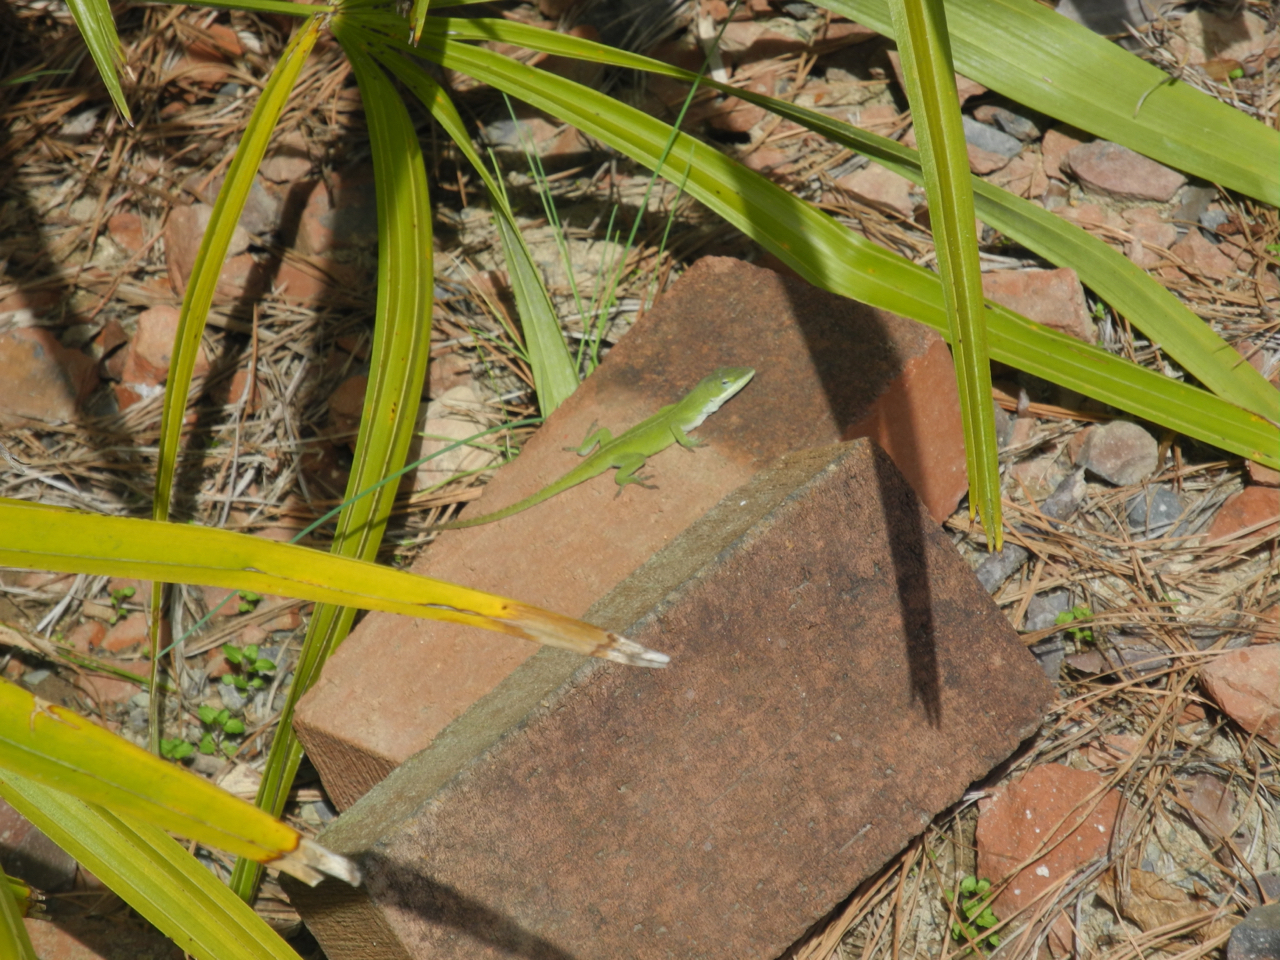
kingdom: Animalia
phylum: Chordata
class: Squamata
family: Dactyloidae
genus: Anolis
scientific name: Anolis carolinensis
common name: Green anole
